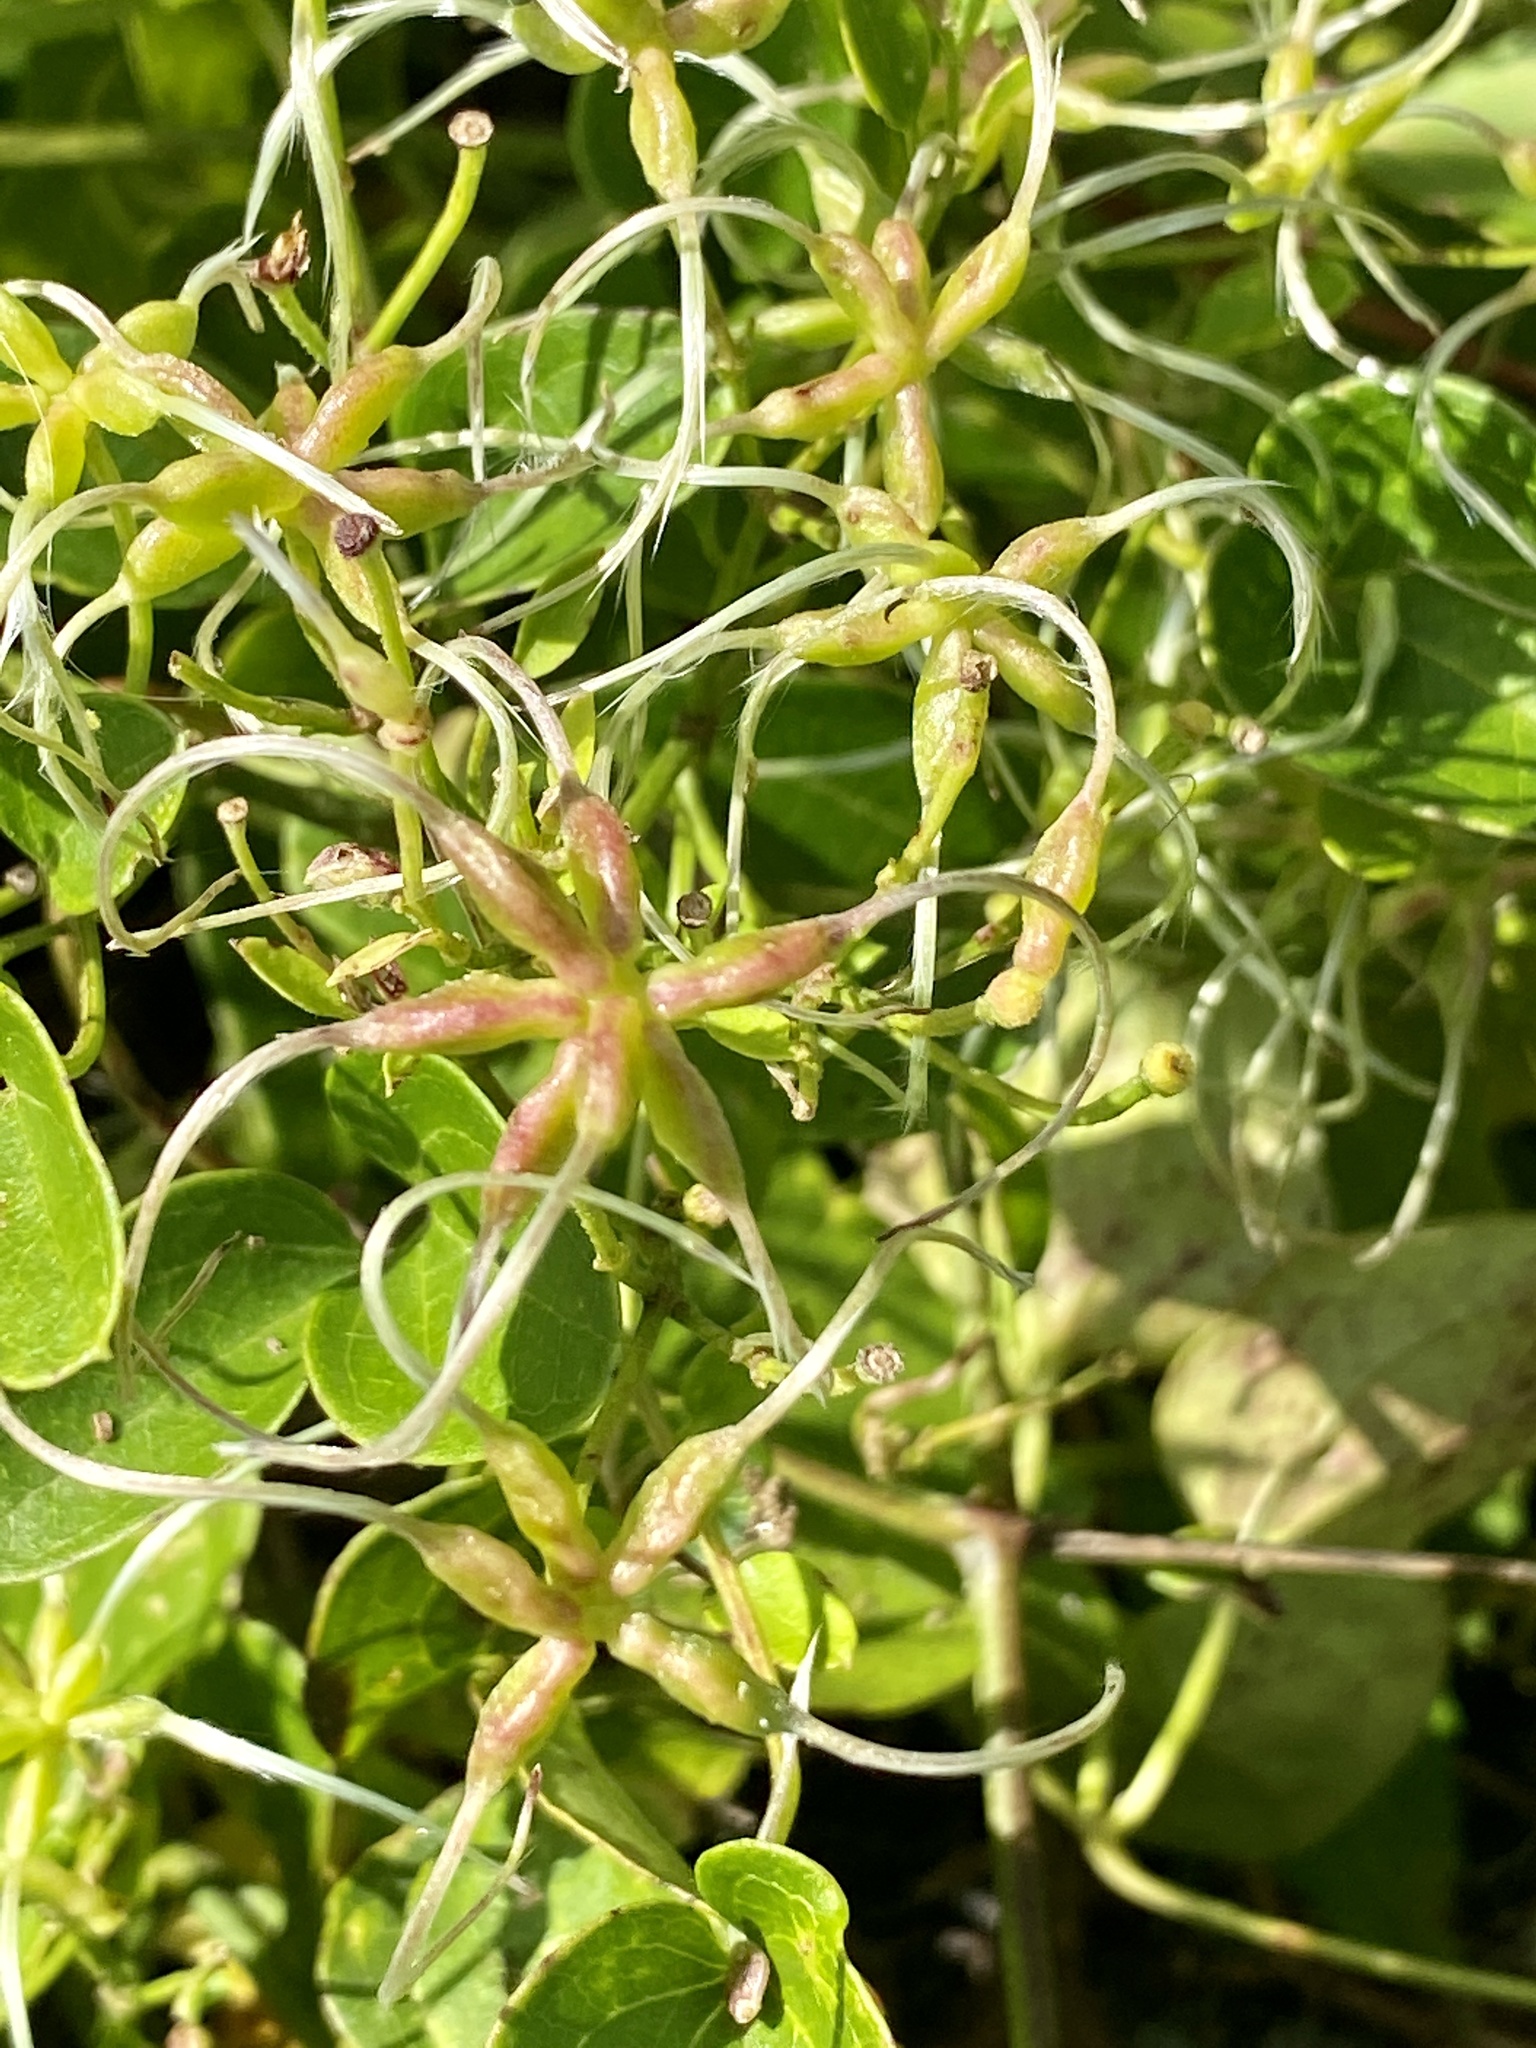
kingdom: Plantae
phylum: Tracheophyta
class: Magnoliopsida
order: Ranunculales
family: Ranunculaceae
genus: Clematis
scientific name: Clematis terniflora
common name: Sweet autumn clematis
